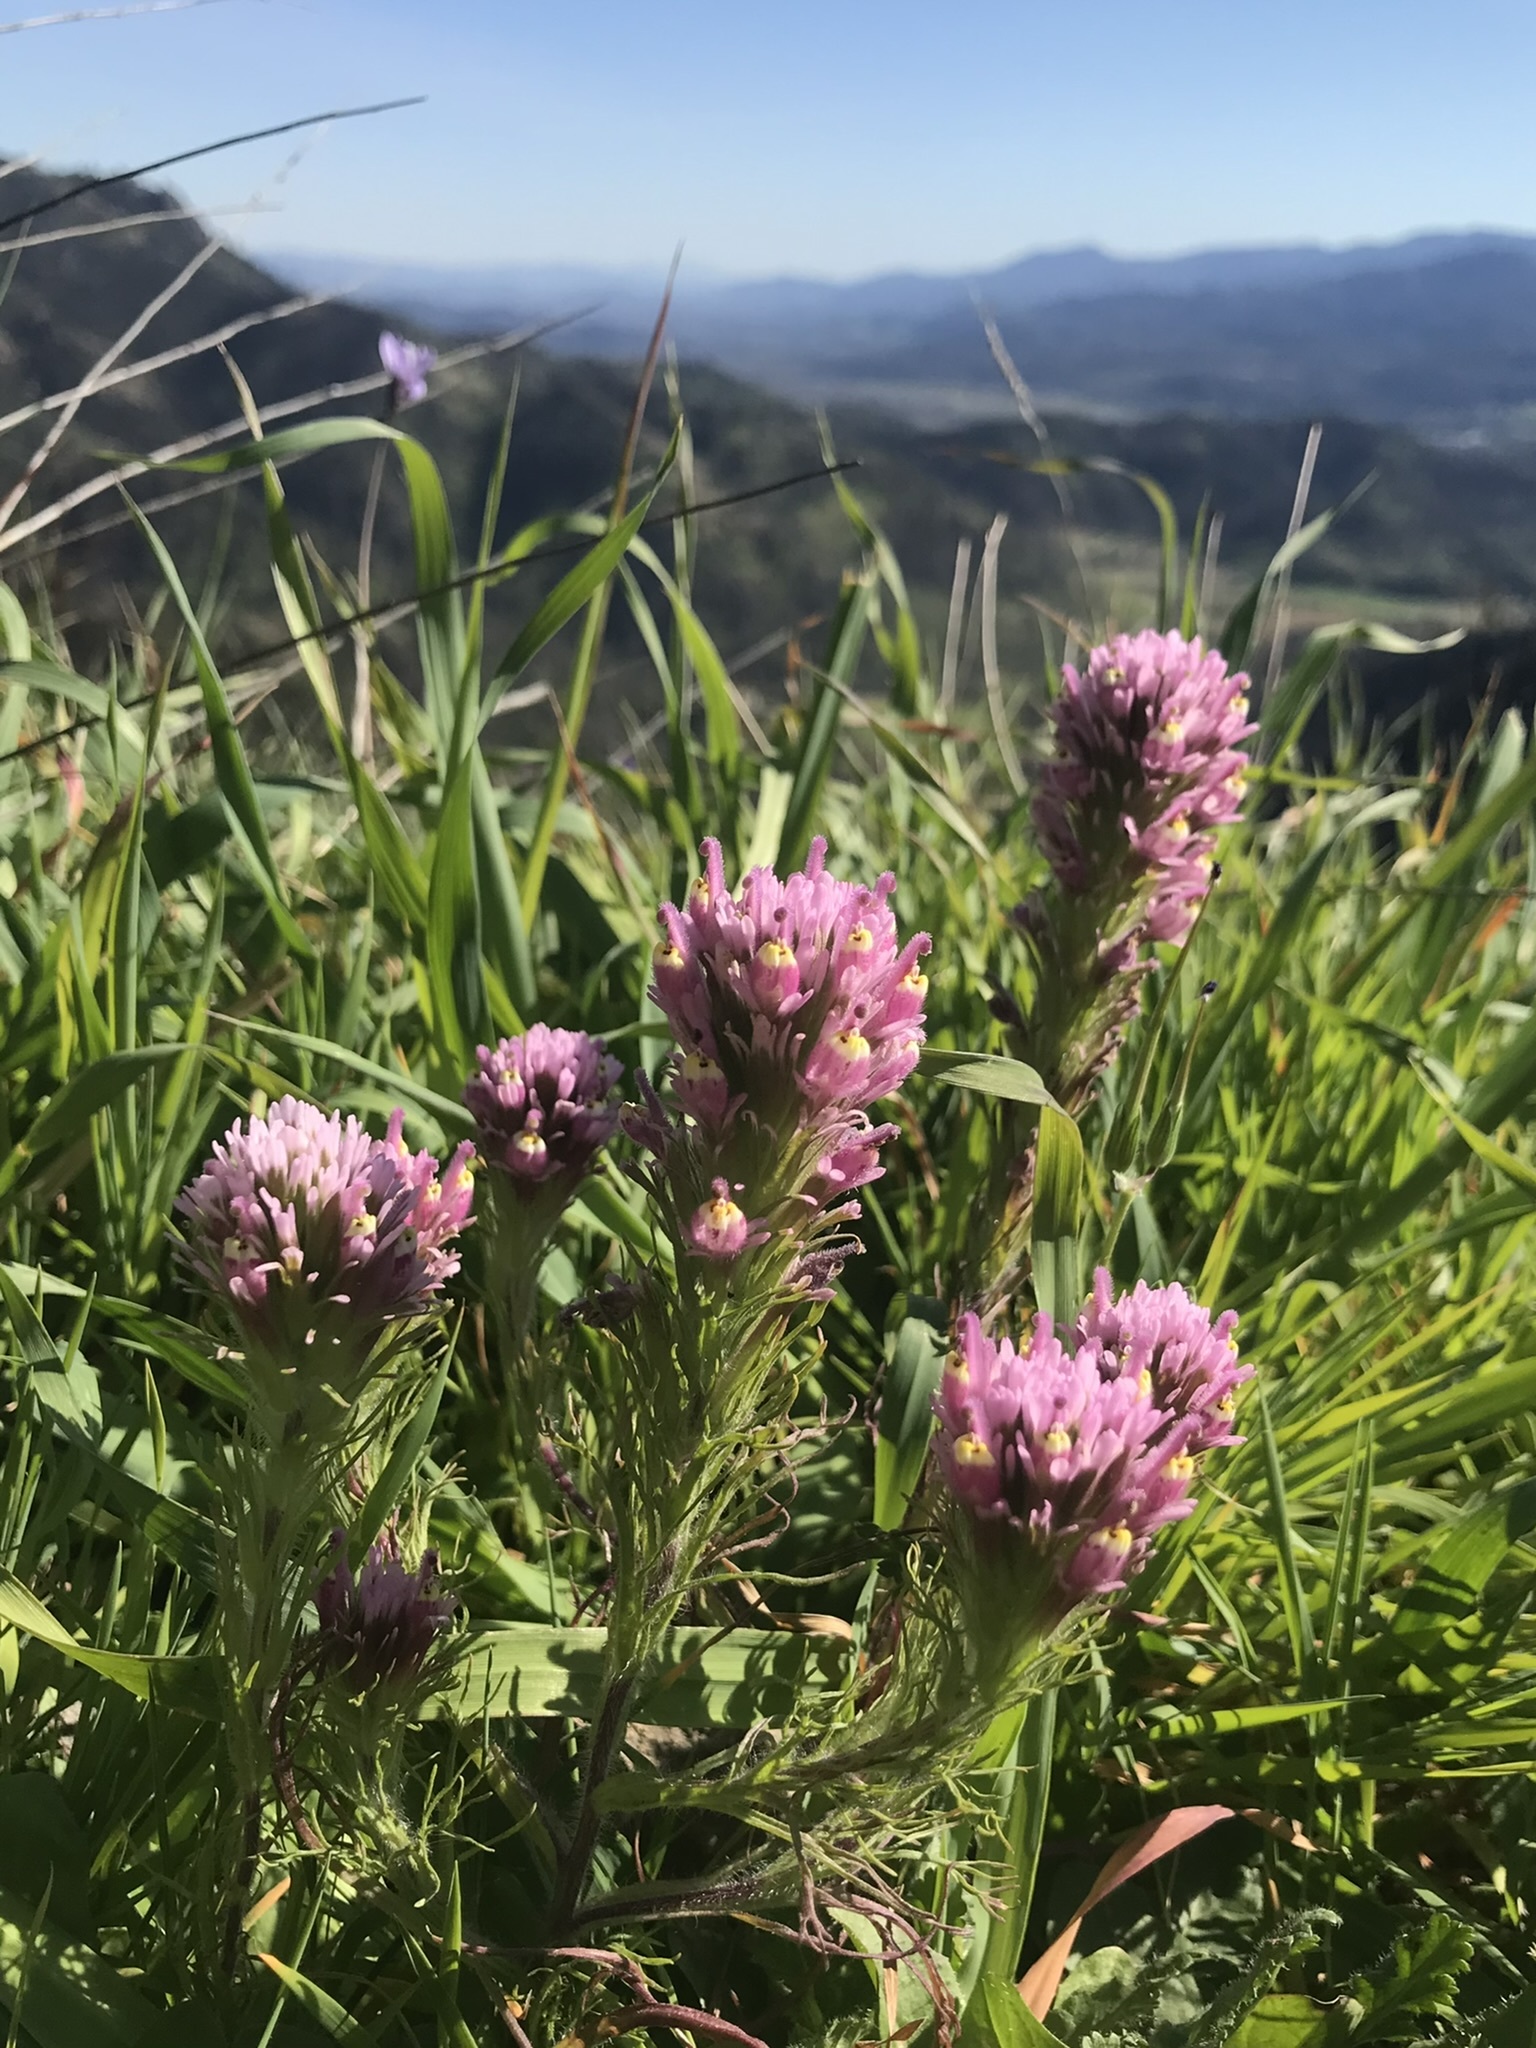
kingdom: Plantae
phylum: Tracheophyta
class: Magnoliopsida
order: Lamiales
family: Orobanchaceae
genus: Castilleja
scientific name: Castilleja exserta
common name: Purple owl-clover
